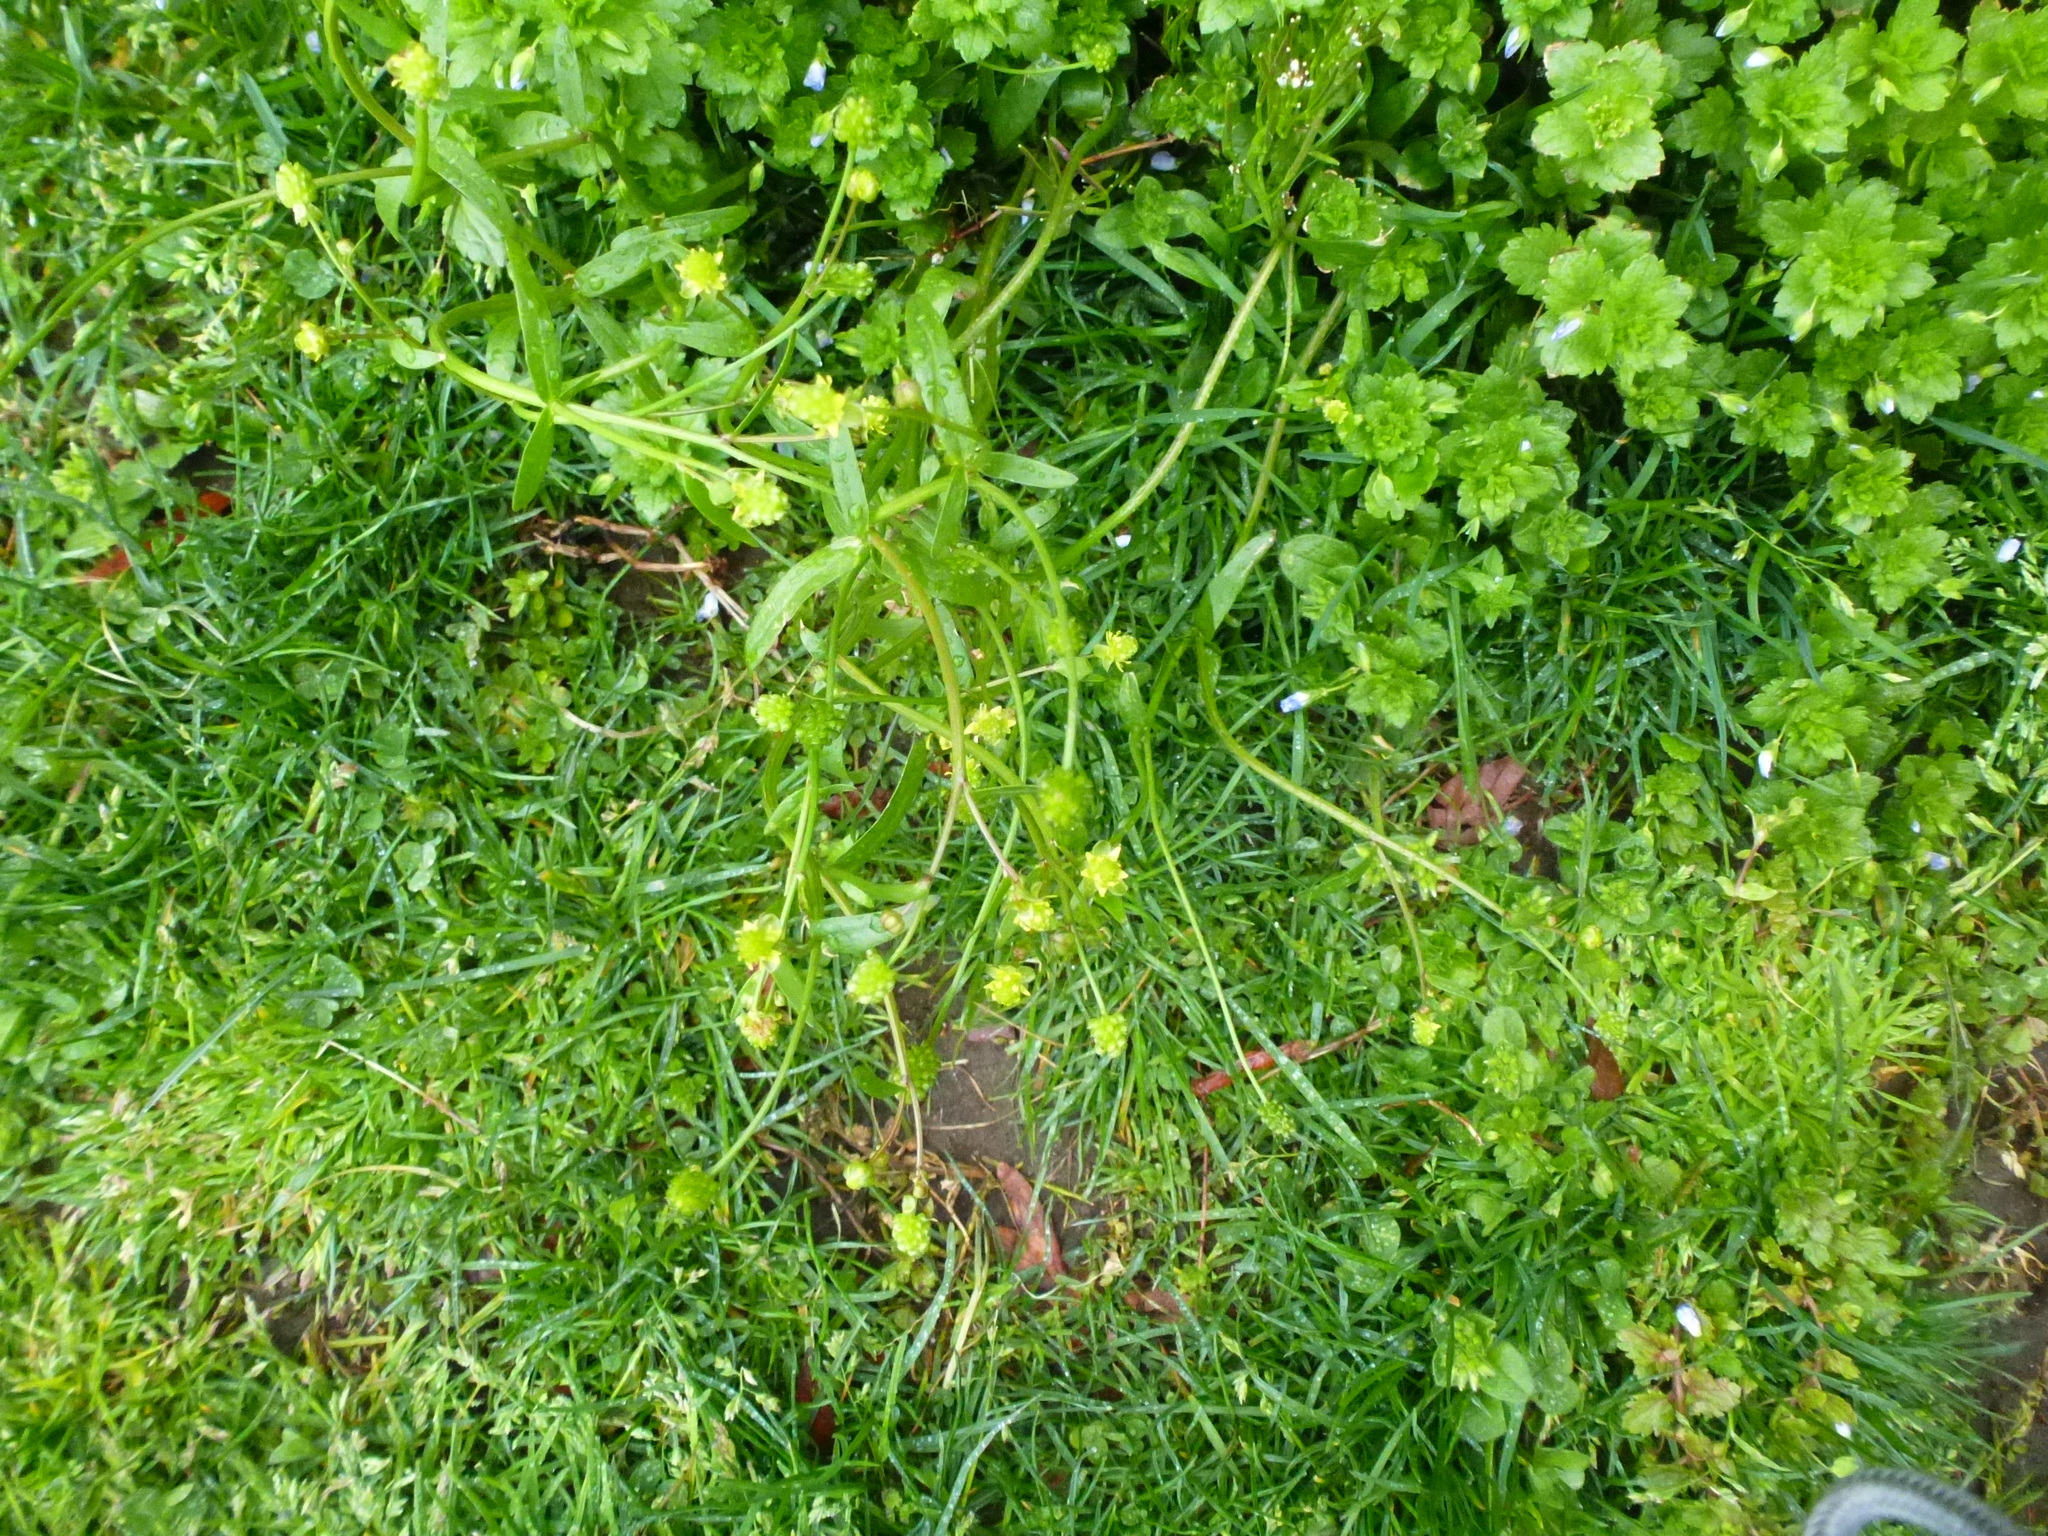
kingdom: Plantae
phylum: Tracheophyta
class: Magnoliopsida
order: Ranunculales
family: Ranunculaceae
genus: Ranunculus
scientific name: Ranunculus abortivus
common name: Early wood buttercup
